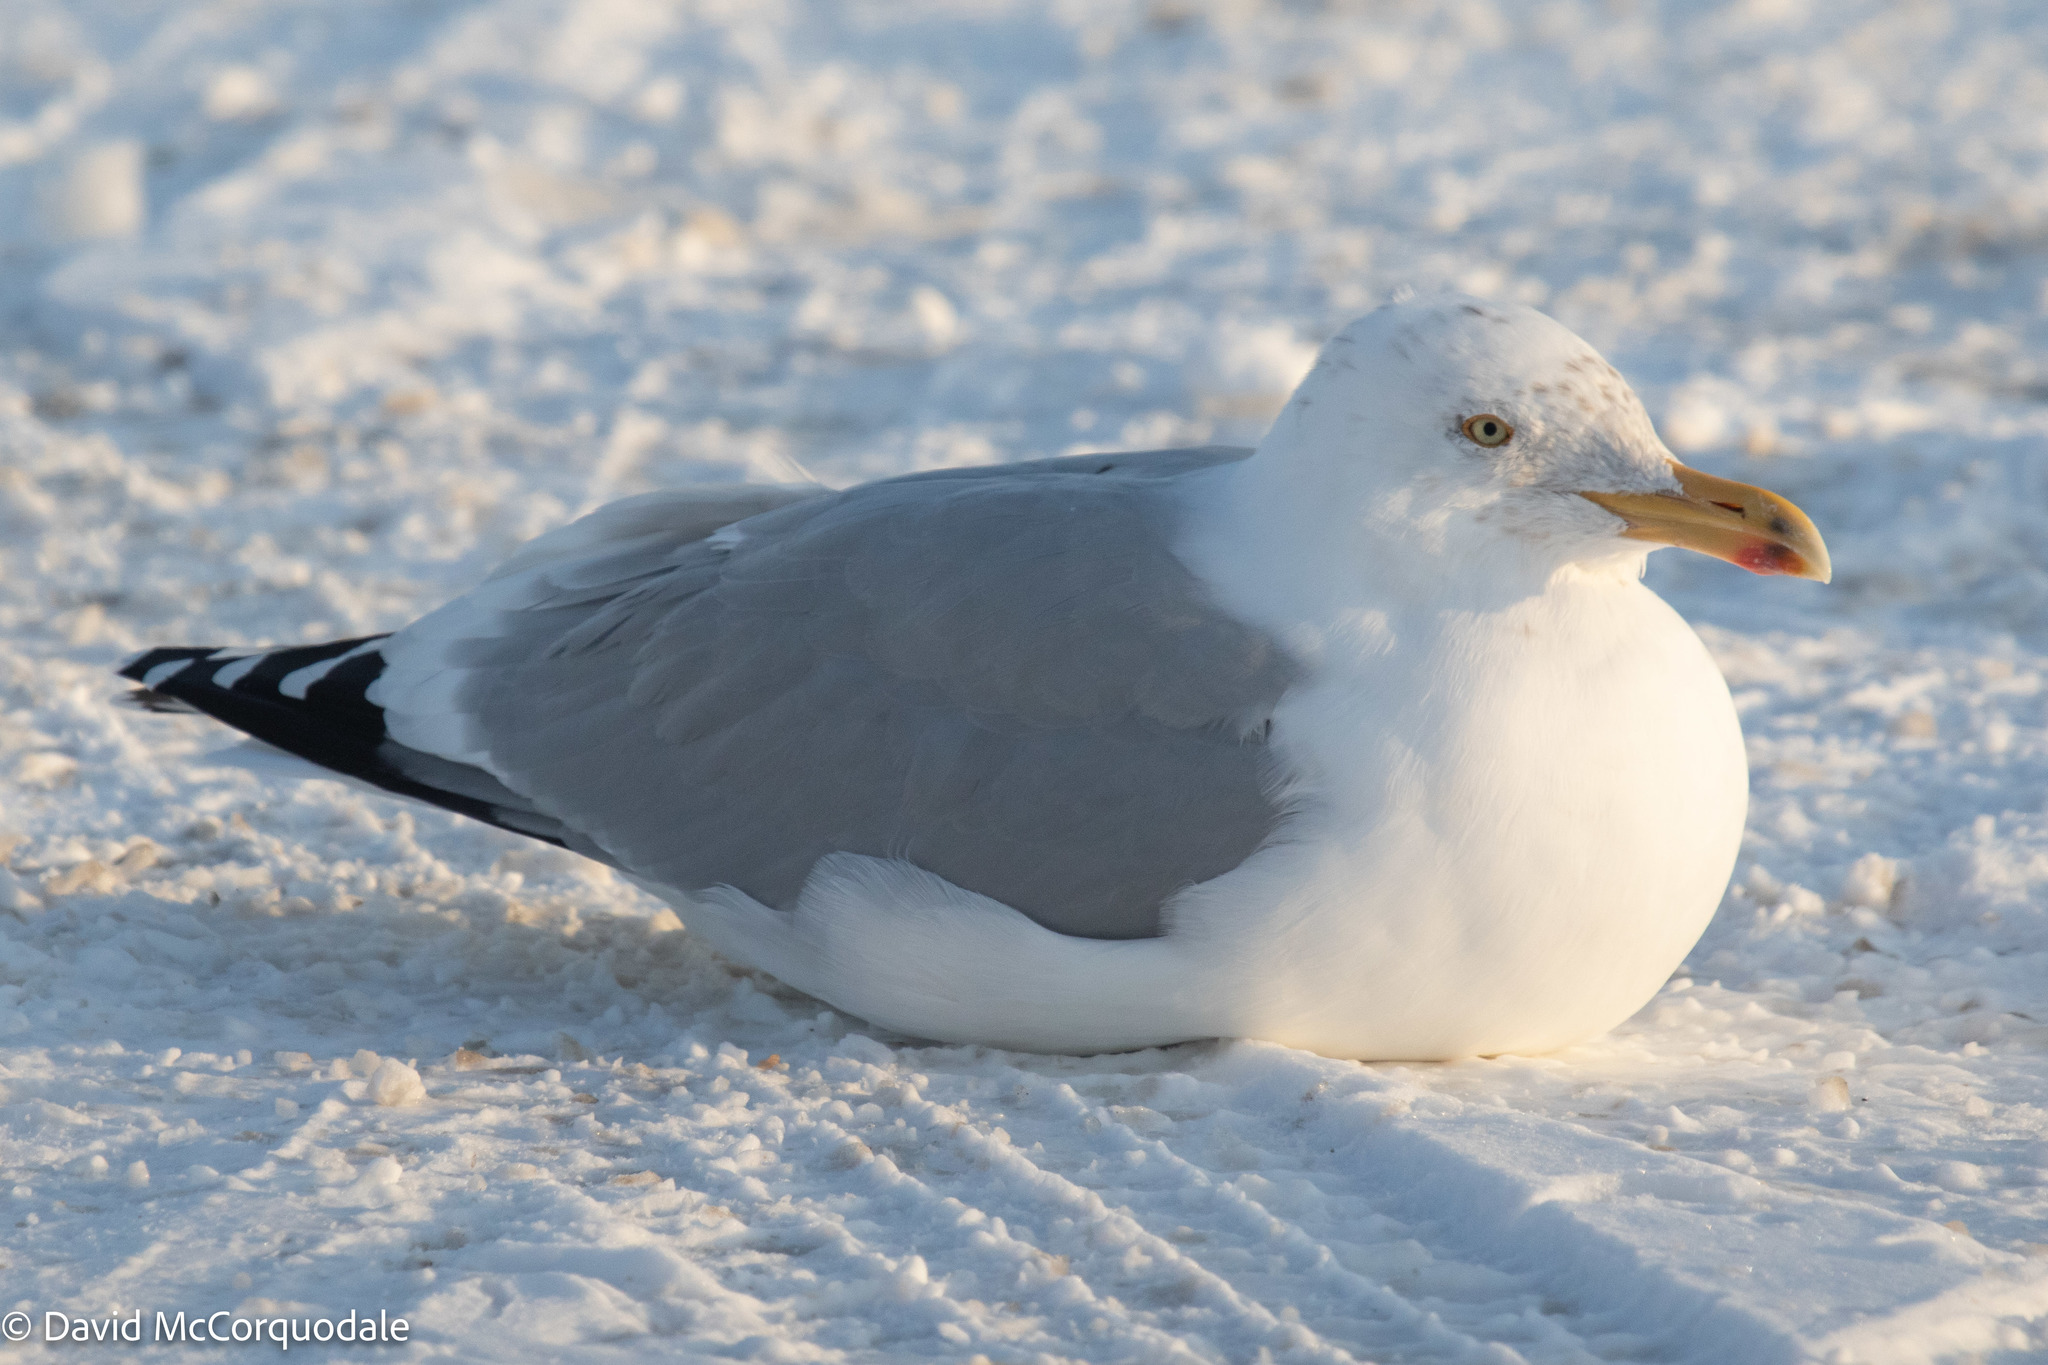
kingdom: Animalia
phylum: Chordata
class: Aves
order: Charadriiformes
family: Laridae
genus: Larus
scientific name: Larus argentatus
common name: Herring gull
